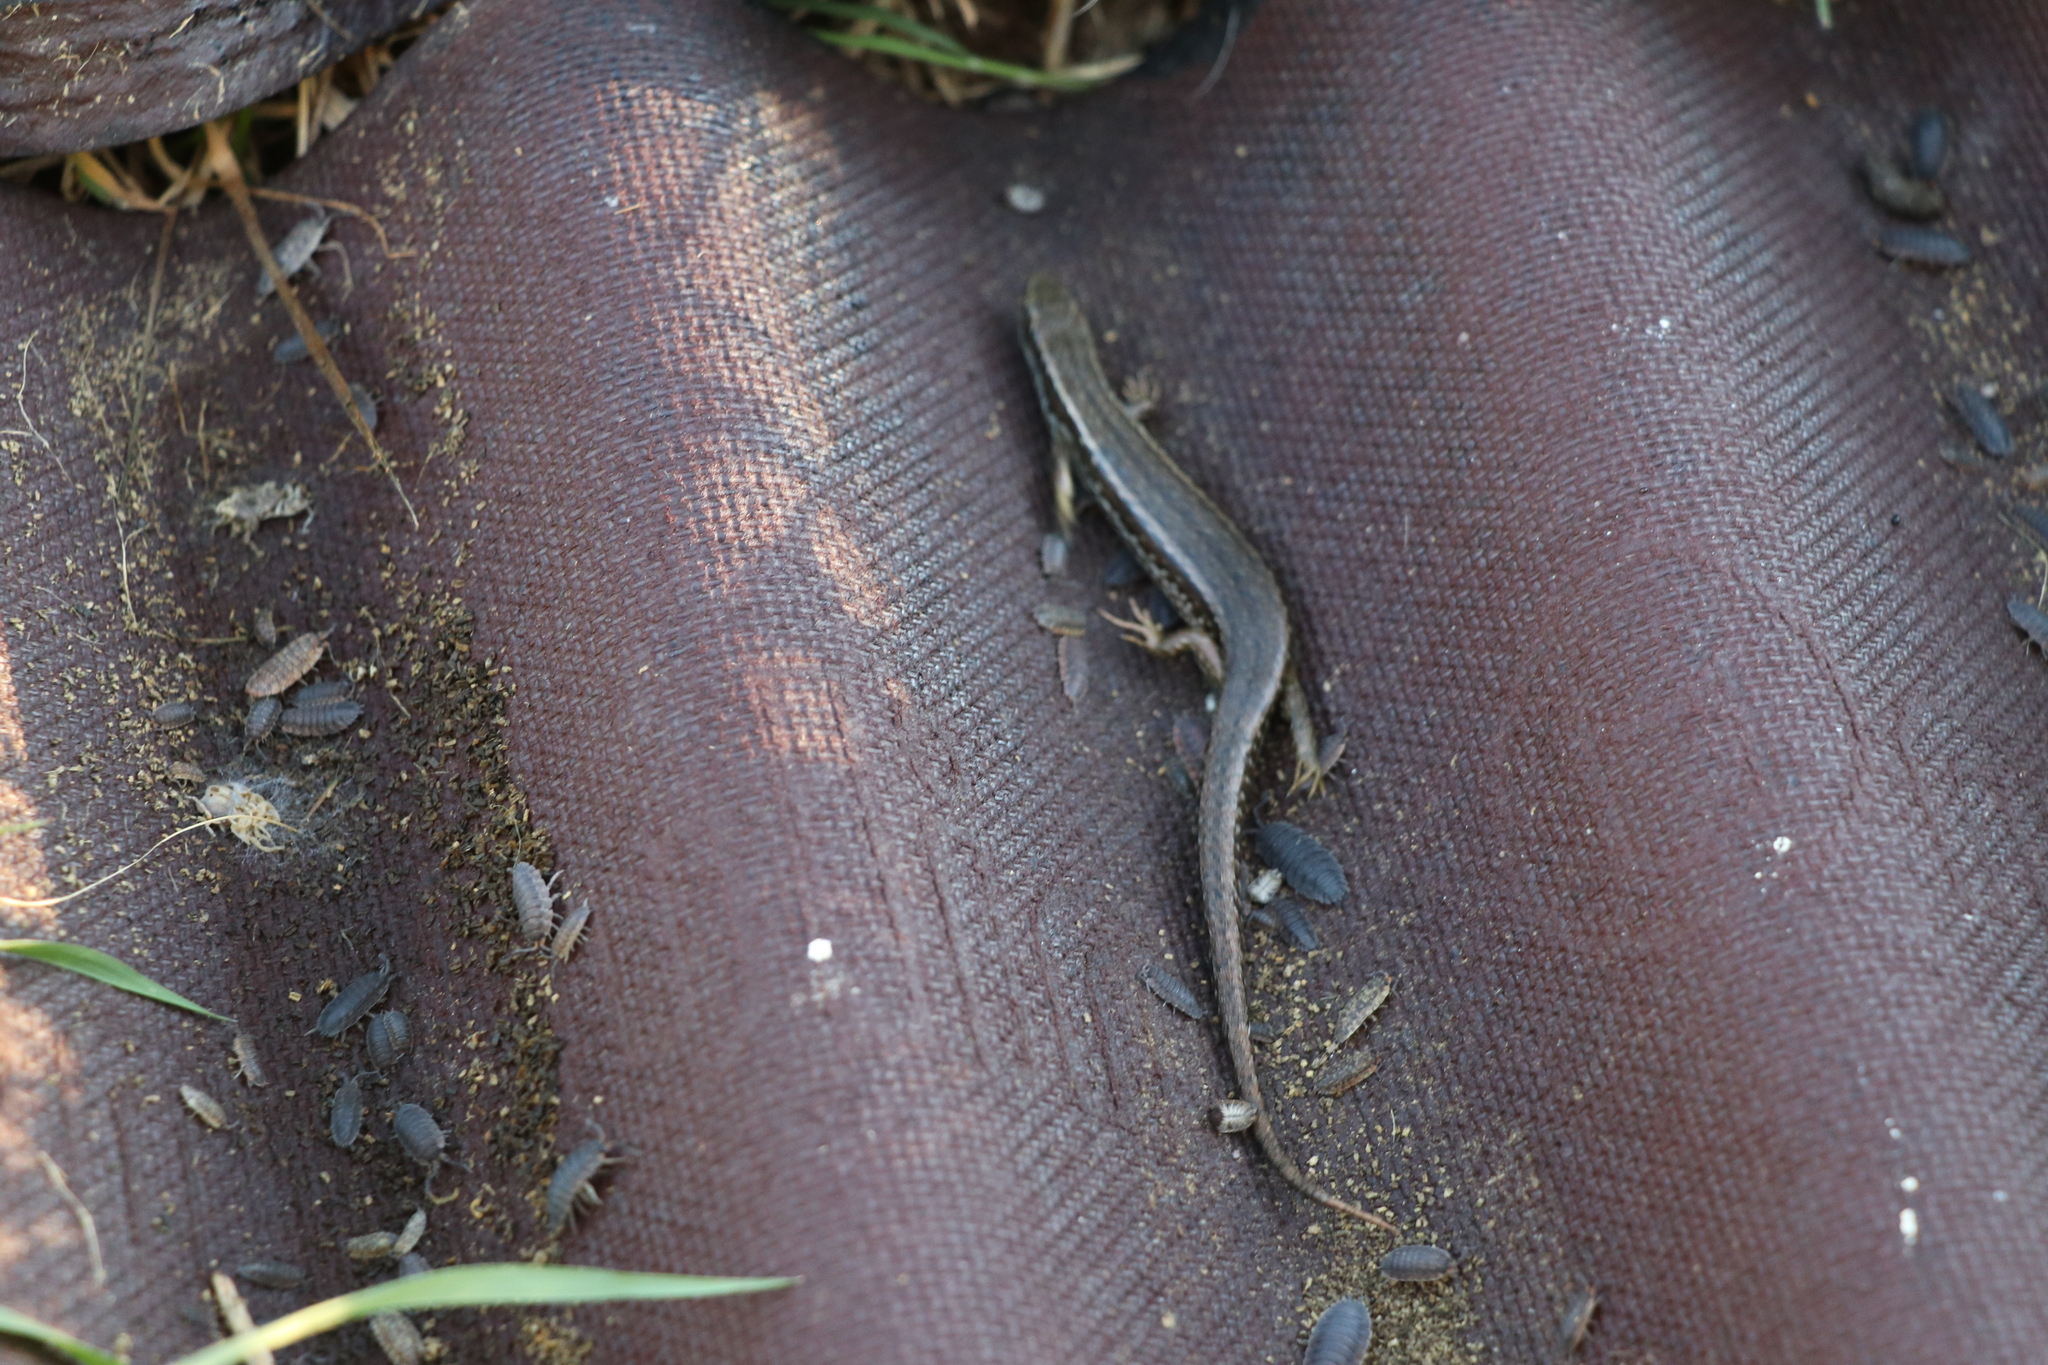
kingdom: Animalia
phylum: Chordata
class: Squamata
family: Scincidae
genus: Oligosoma
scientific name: Oligosoma polychroma
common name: Common new zealand skink
